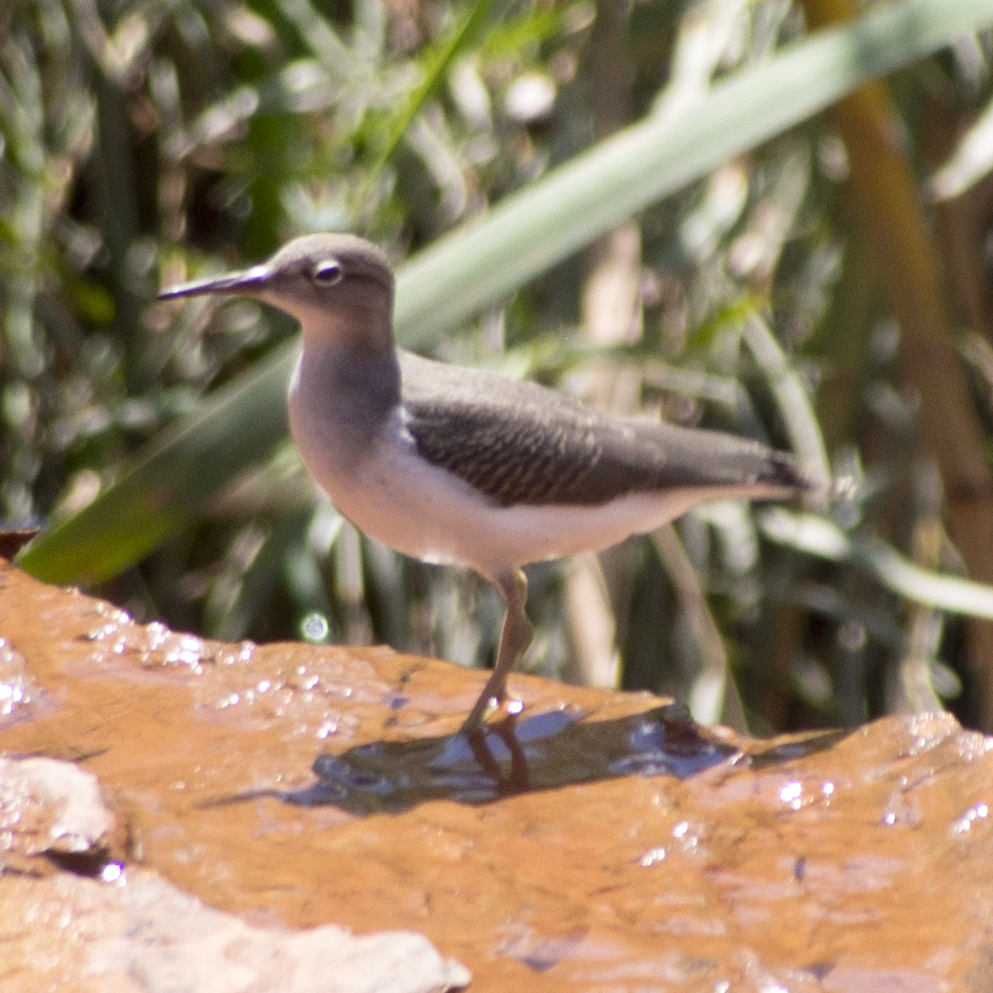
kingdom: Animalia
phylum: Chordata
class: Aves
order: Charadriiformes
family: Scolopacidae
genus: Actitis
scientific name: Actitis macularius
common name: Spotted sandpiper
